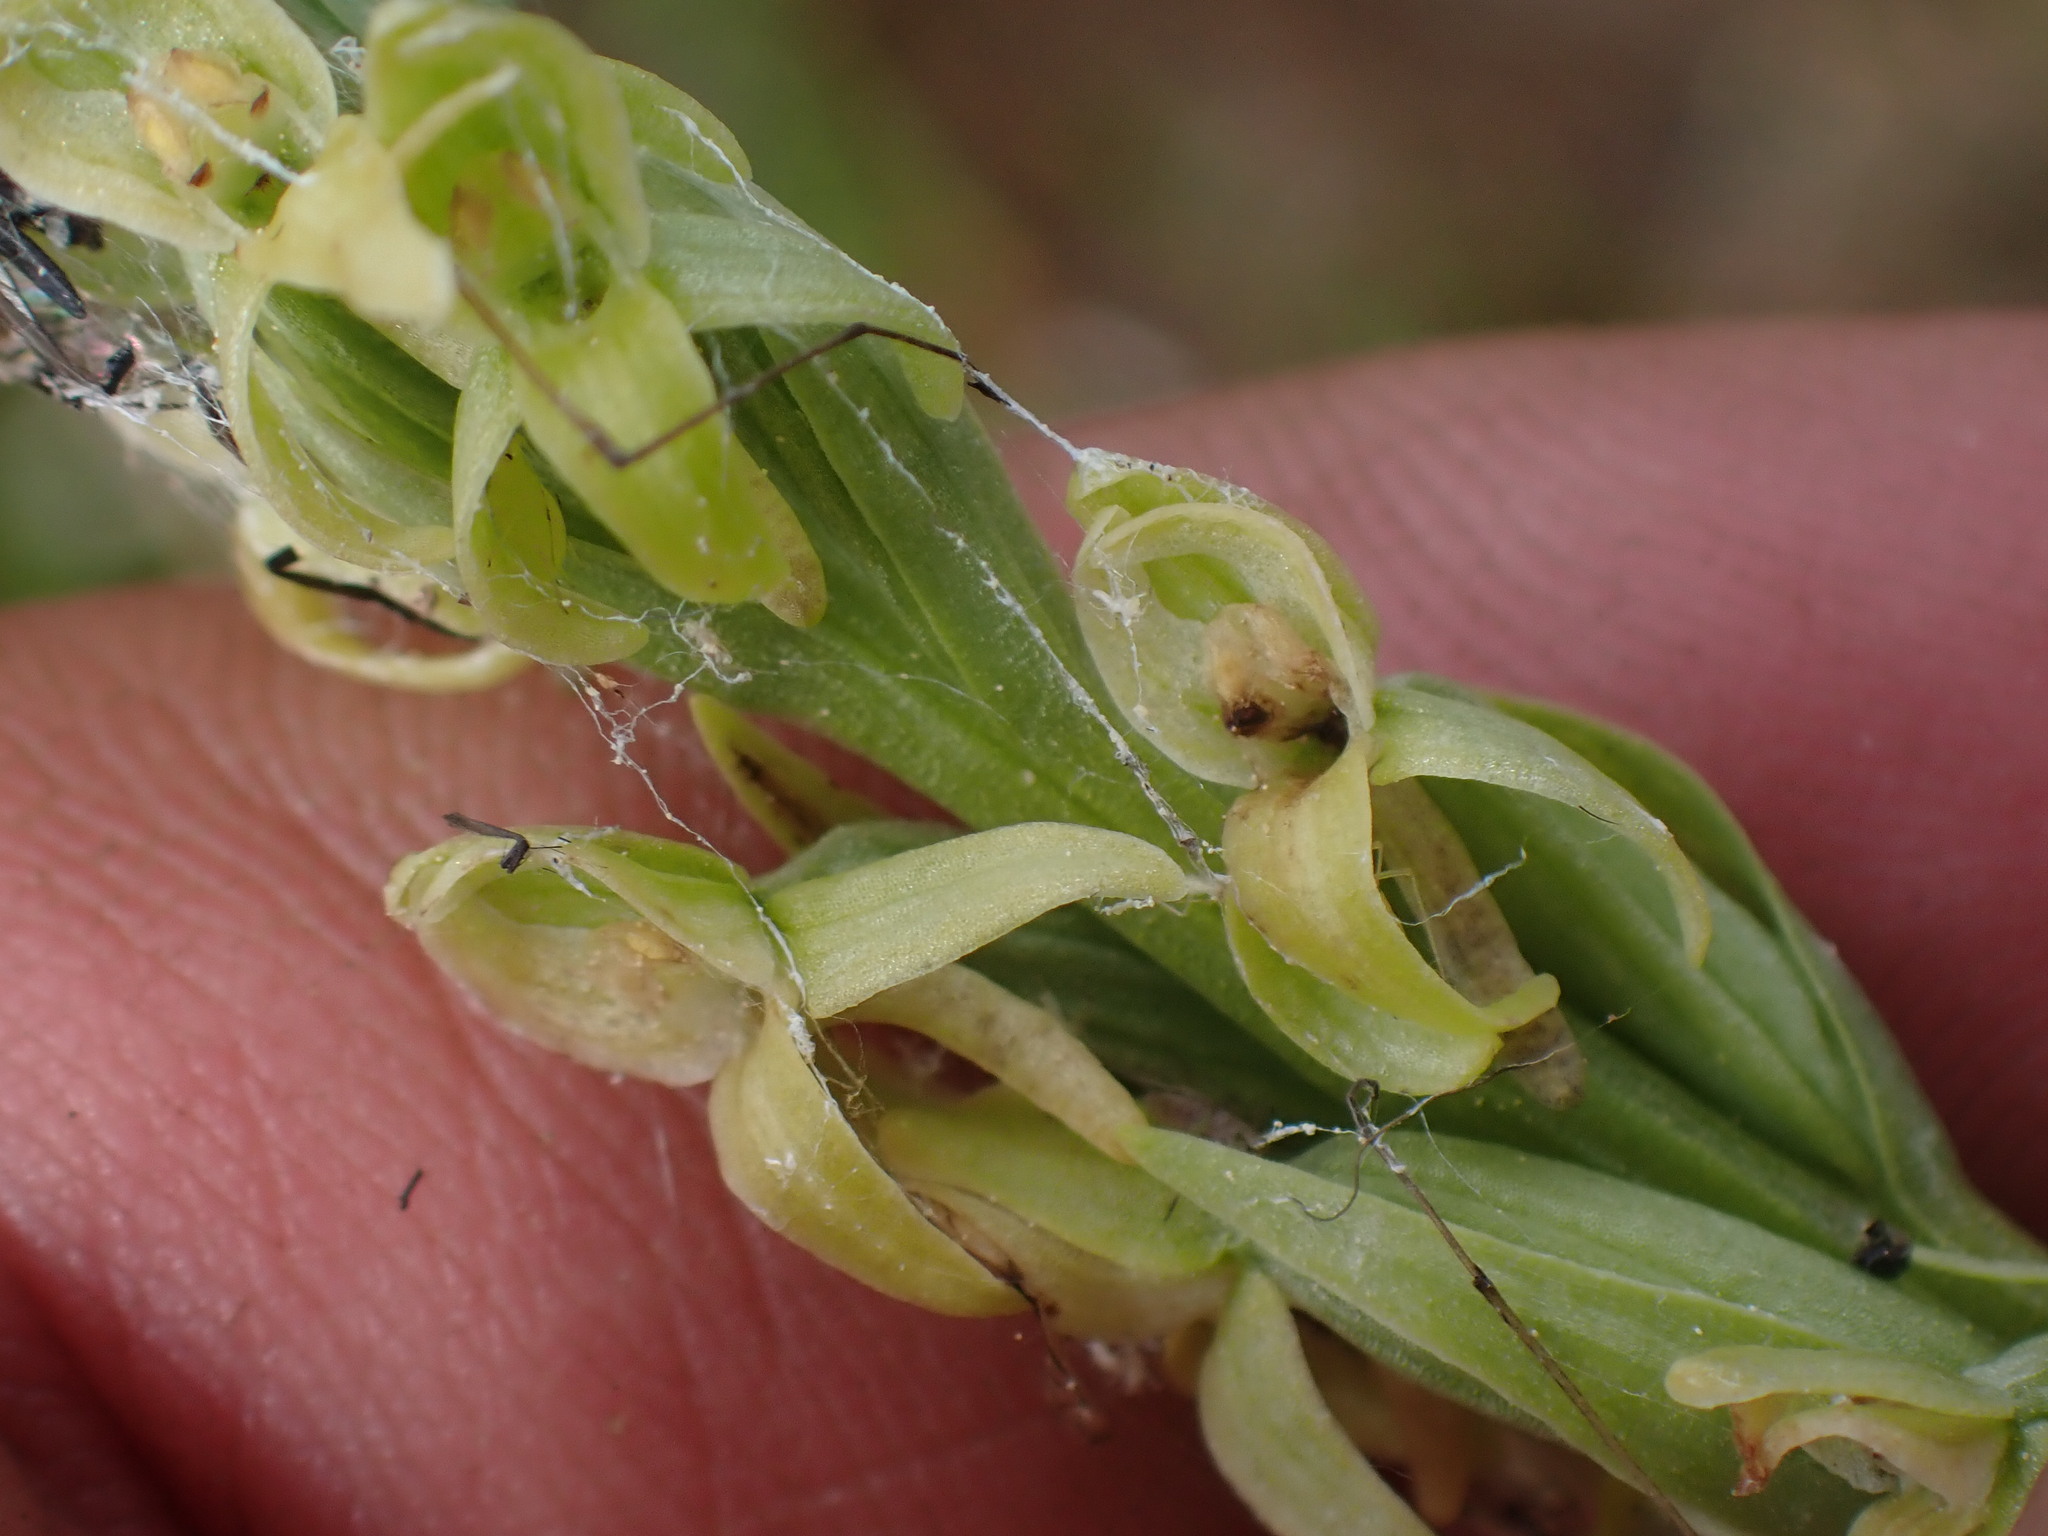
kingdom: Plantae
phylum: Tracheophyta
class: Liliopsida
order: Asparagales
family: Orchidaceae
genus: Platanthera
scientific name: Platanthera huronensis
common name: Fragrant green orchid
